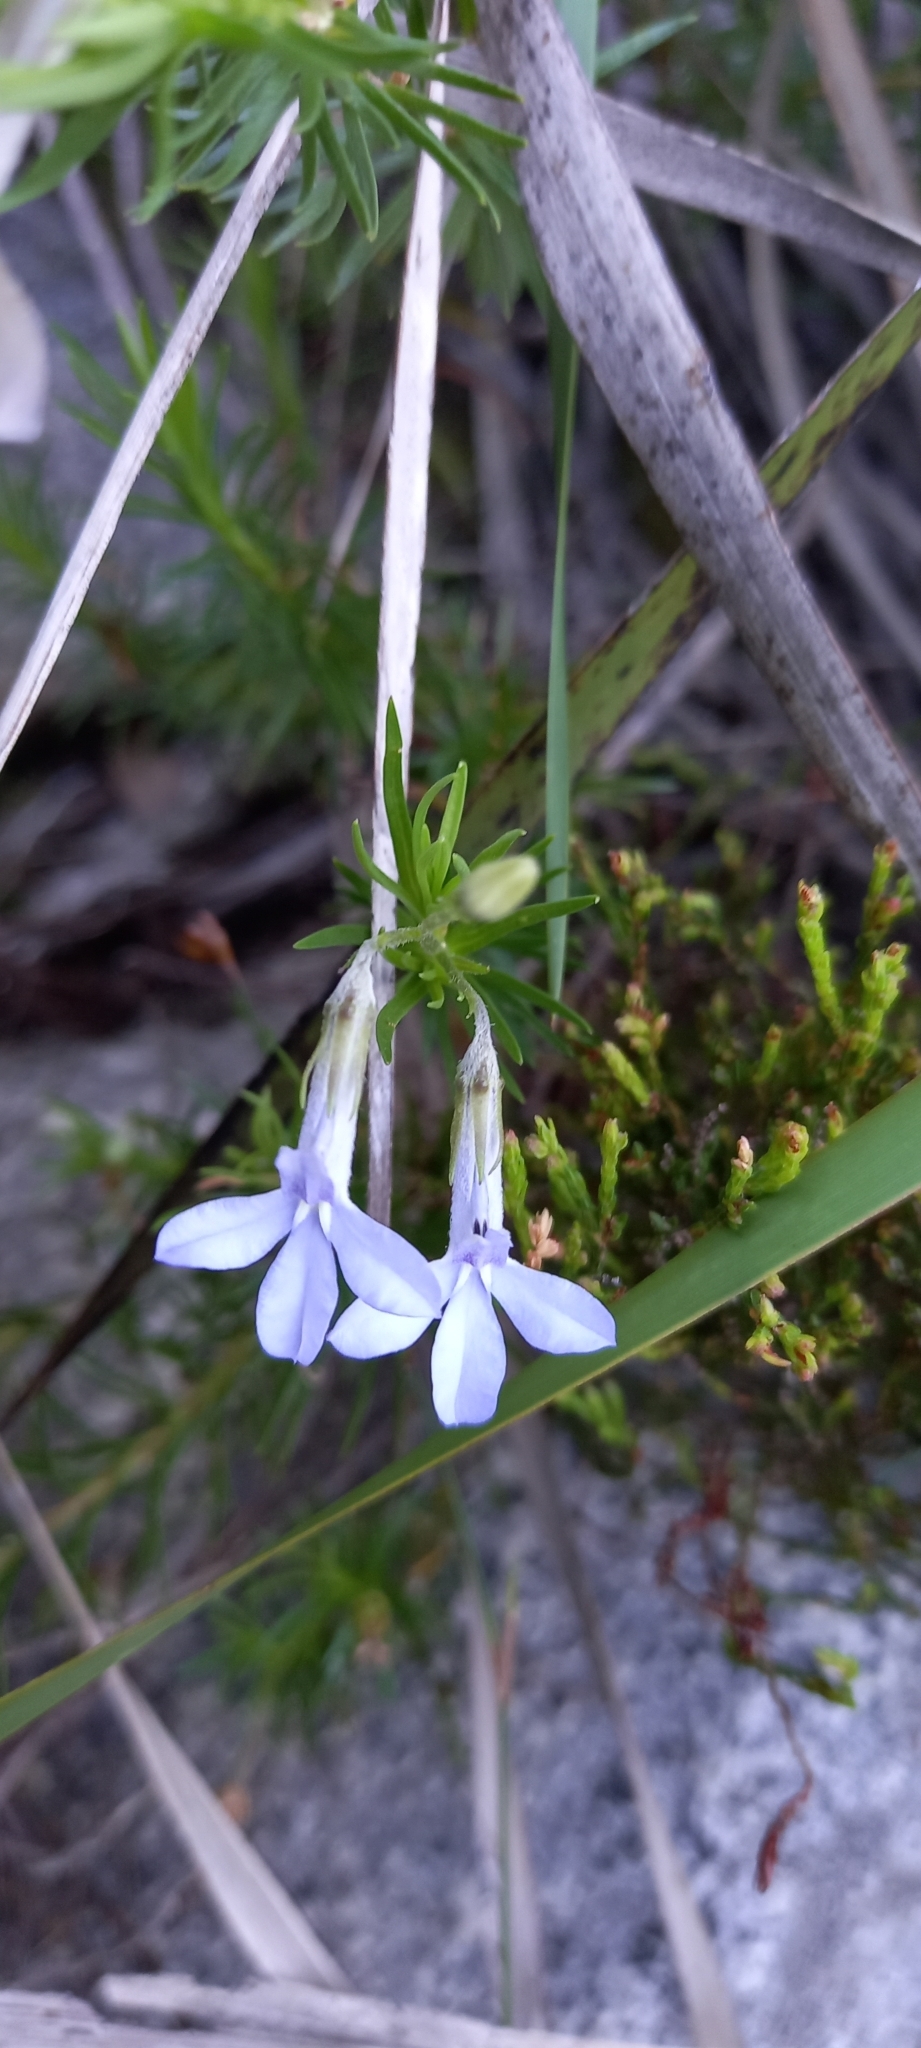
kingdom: Plantae
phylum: Tracheophyta
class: Magnoliopsida
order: Asterales
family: Campanulaceae
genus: Lobelia
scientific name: Lobelia pinifolia
